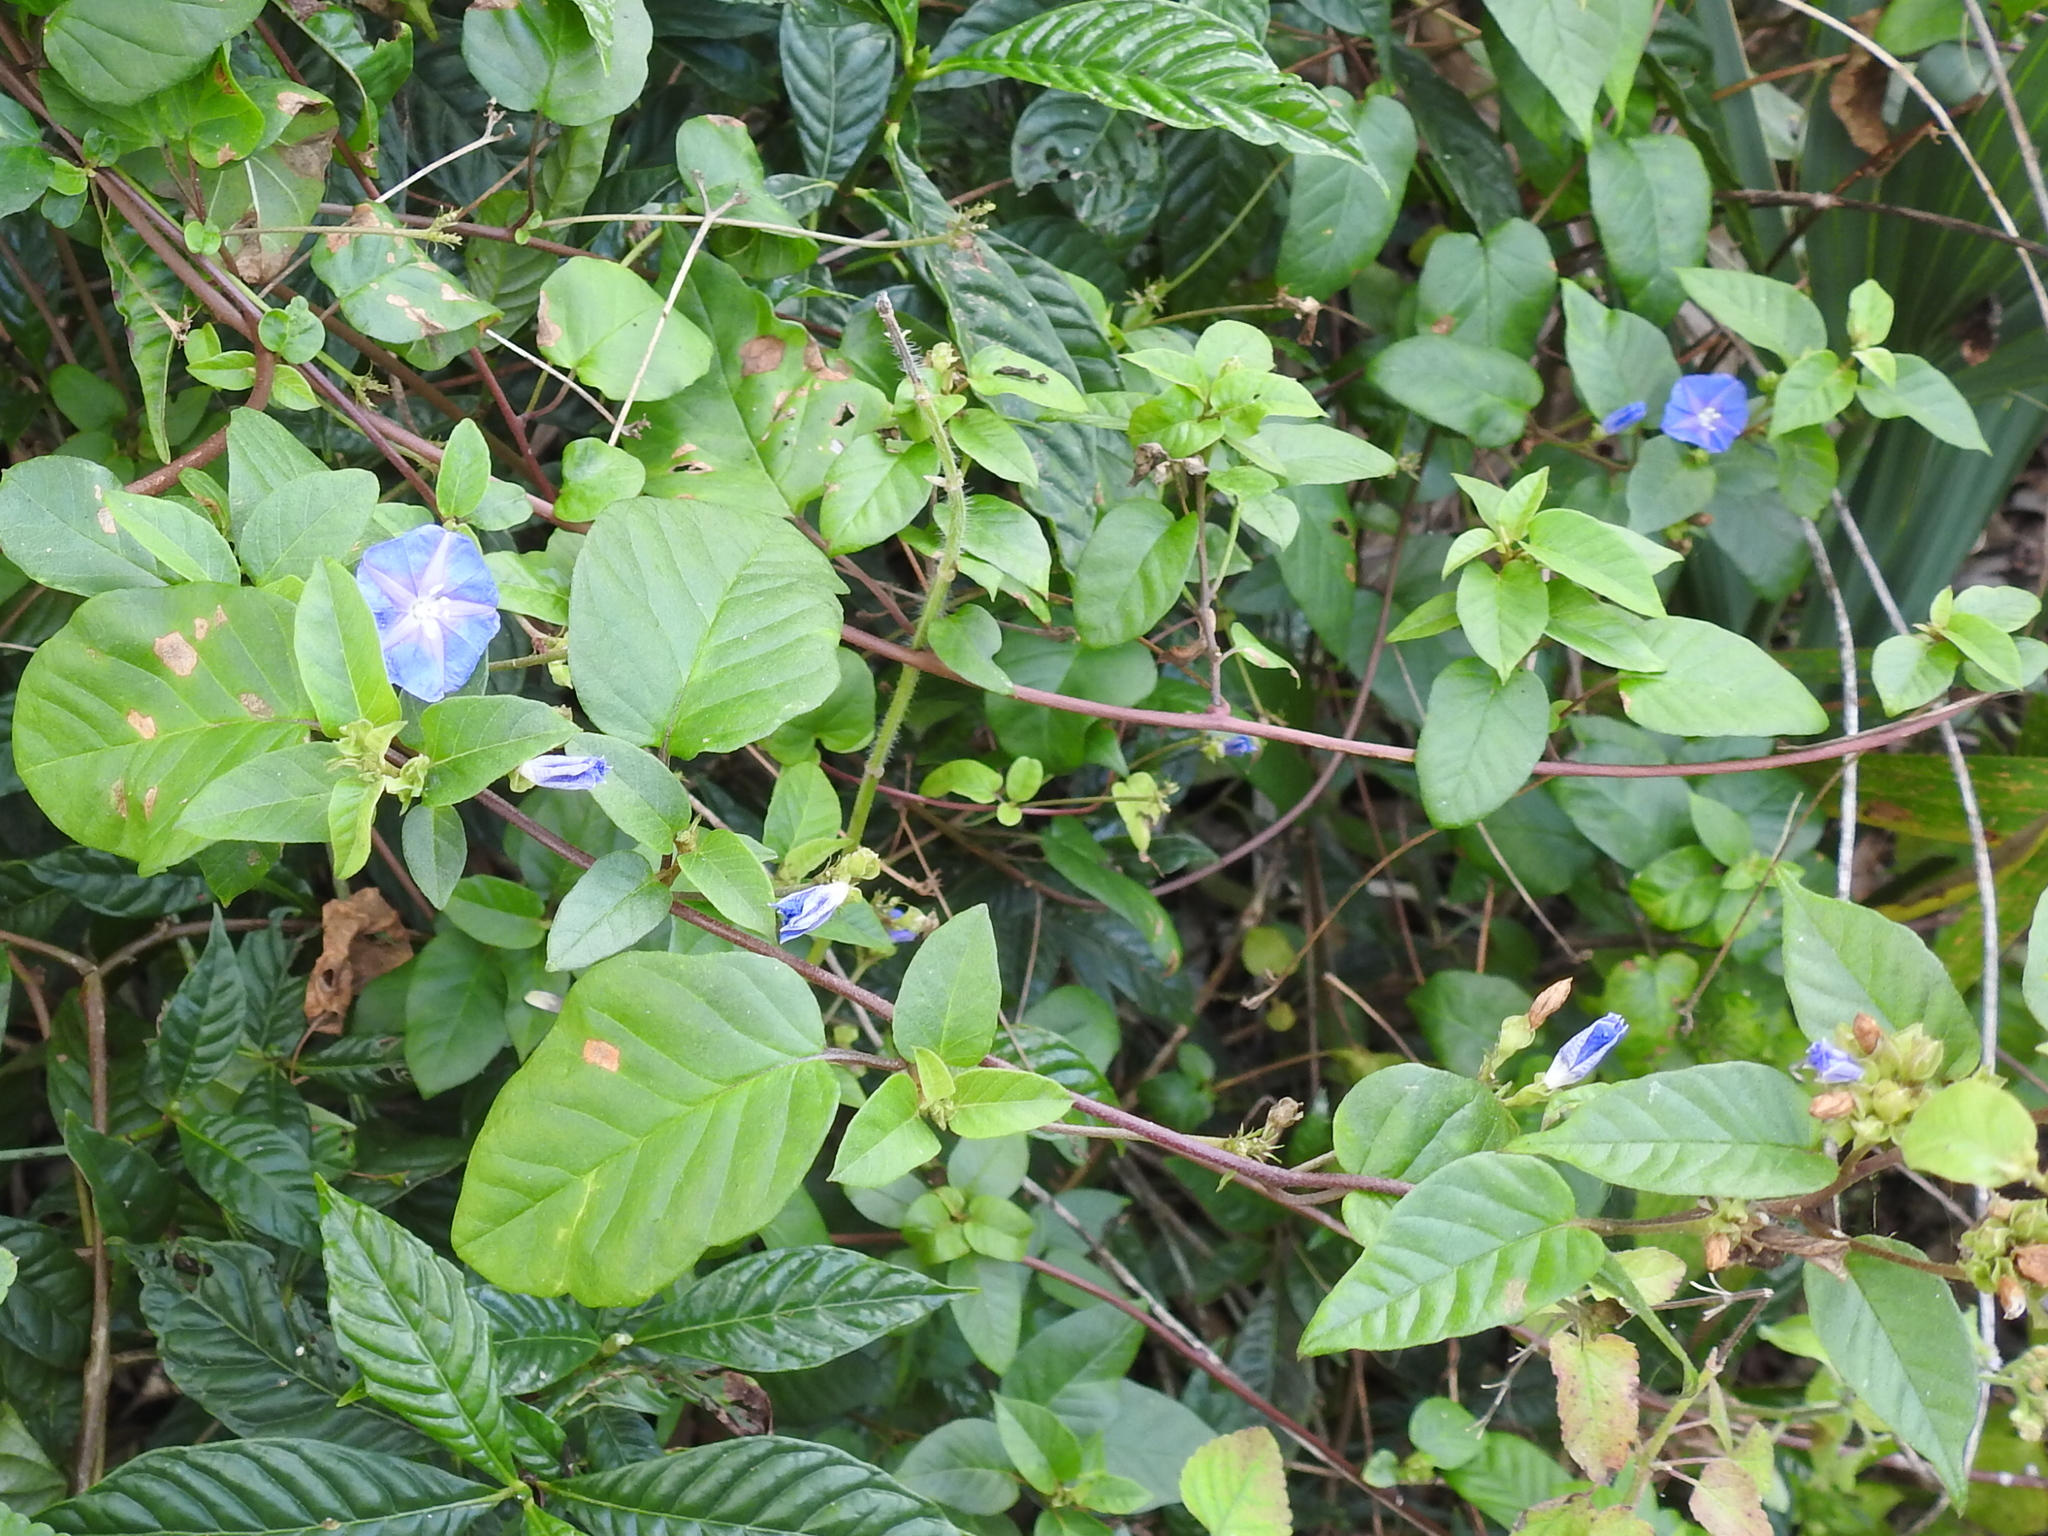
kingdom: Plantae
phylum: Tracheophyta
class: Magnoliopsida
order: Solanales
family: Convolvulaceae
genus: Jacquemontia
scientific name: Jacquemontia pentanthos
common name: Skyblue clustervine
